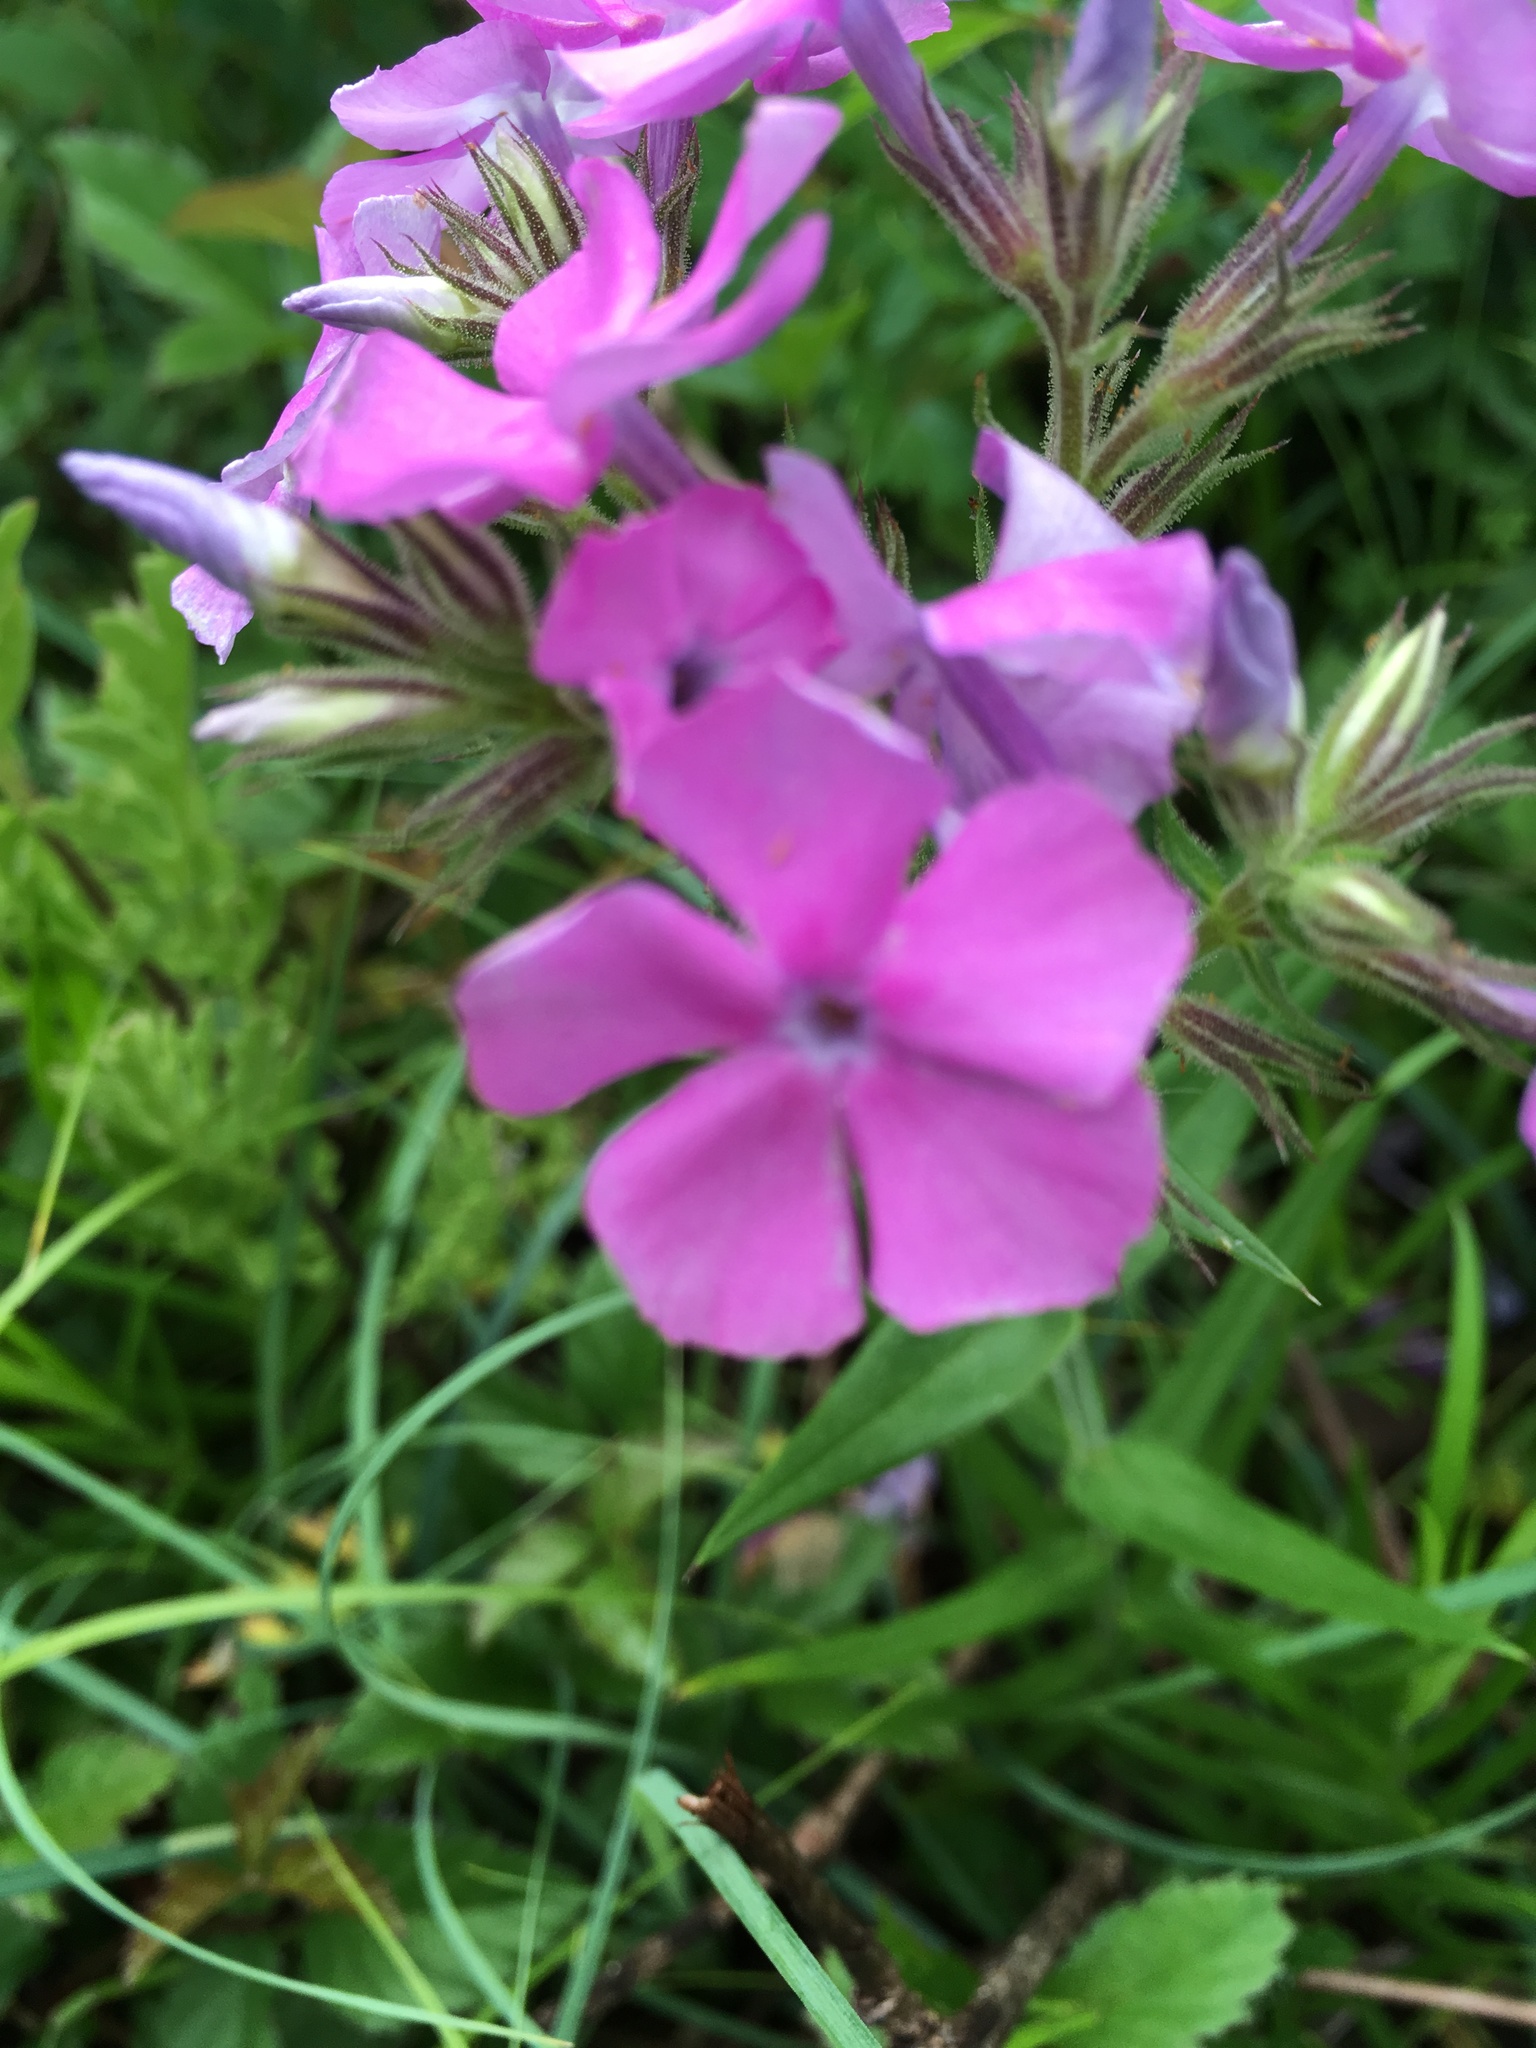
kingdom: Plantae
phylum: Tracheophyta
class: Magnoliopsida
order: Ericales
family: Polemoniaceae
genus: Phlox
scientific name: Phlox pilosa
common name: Prairie phlox
